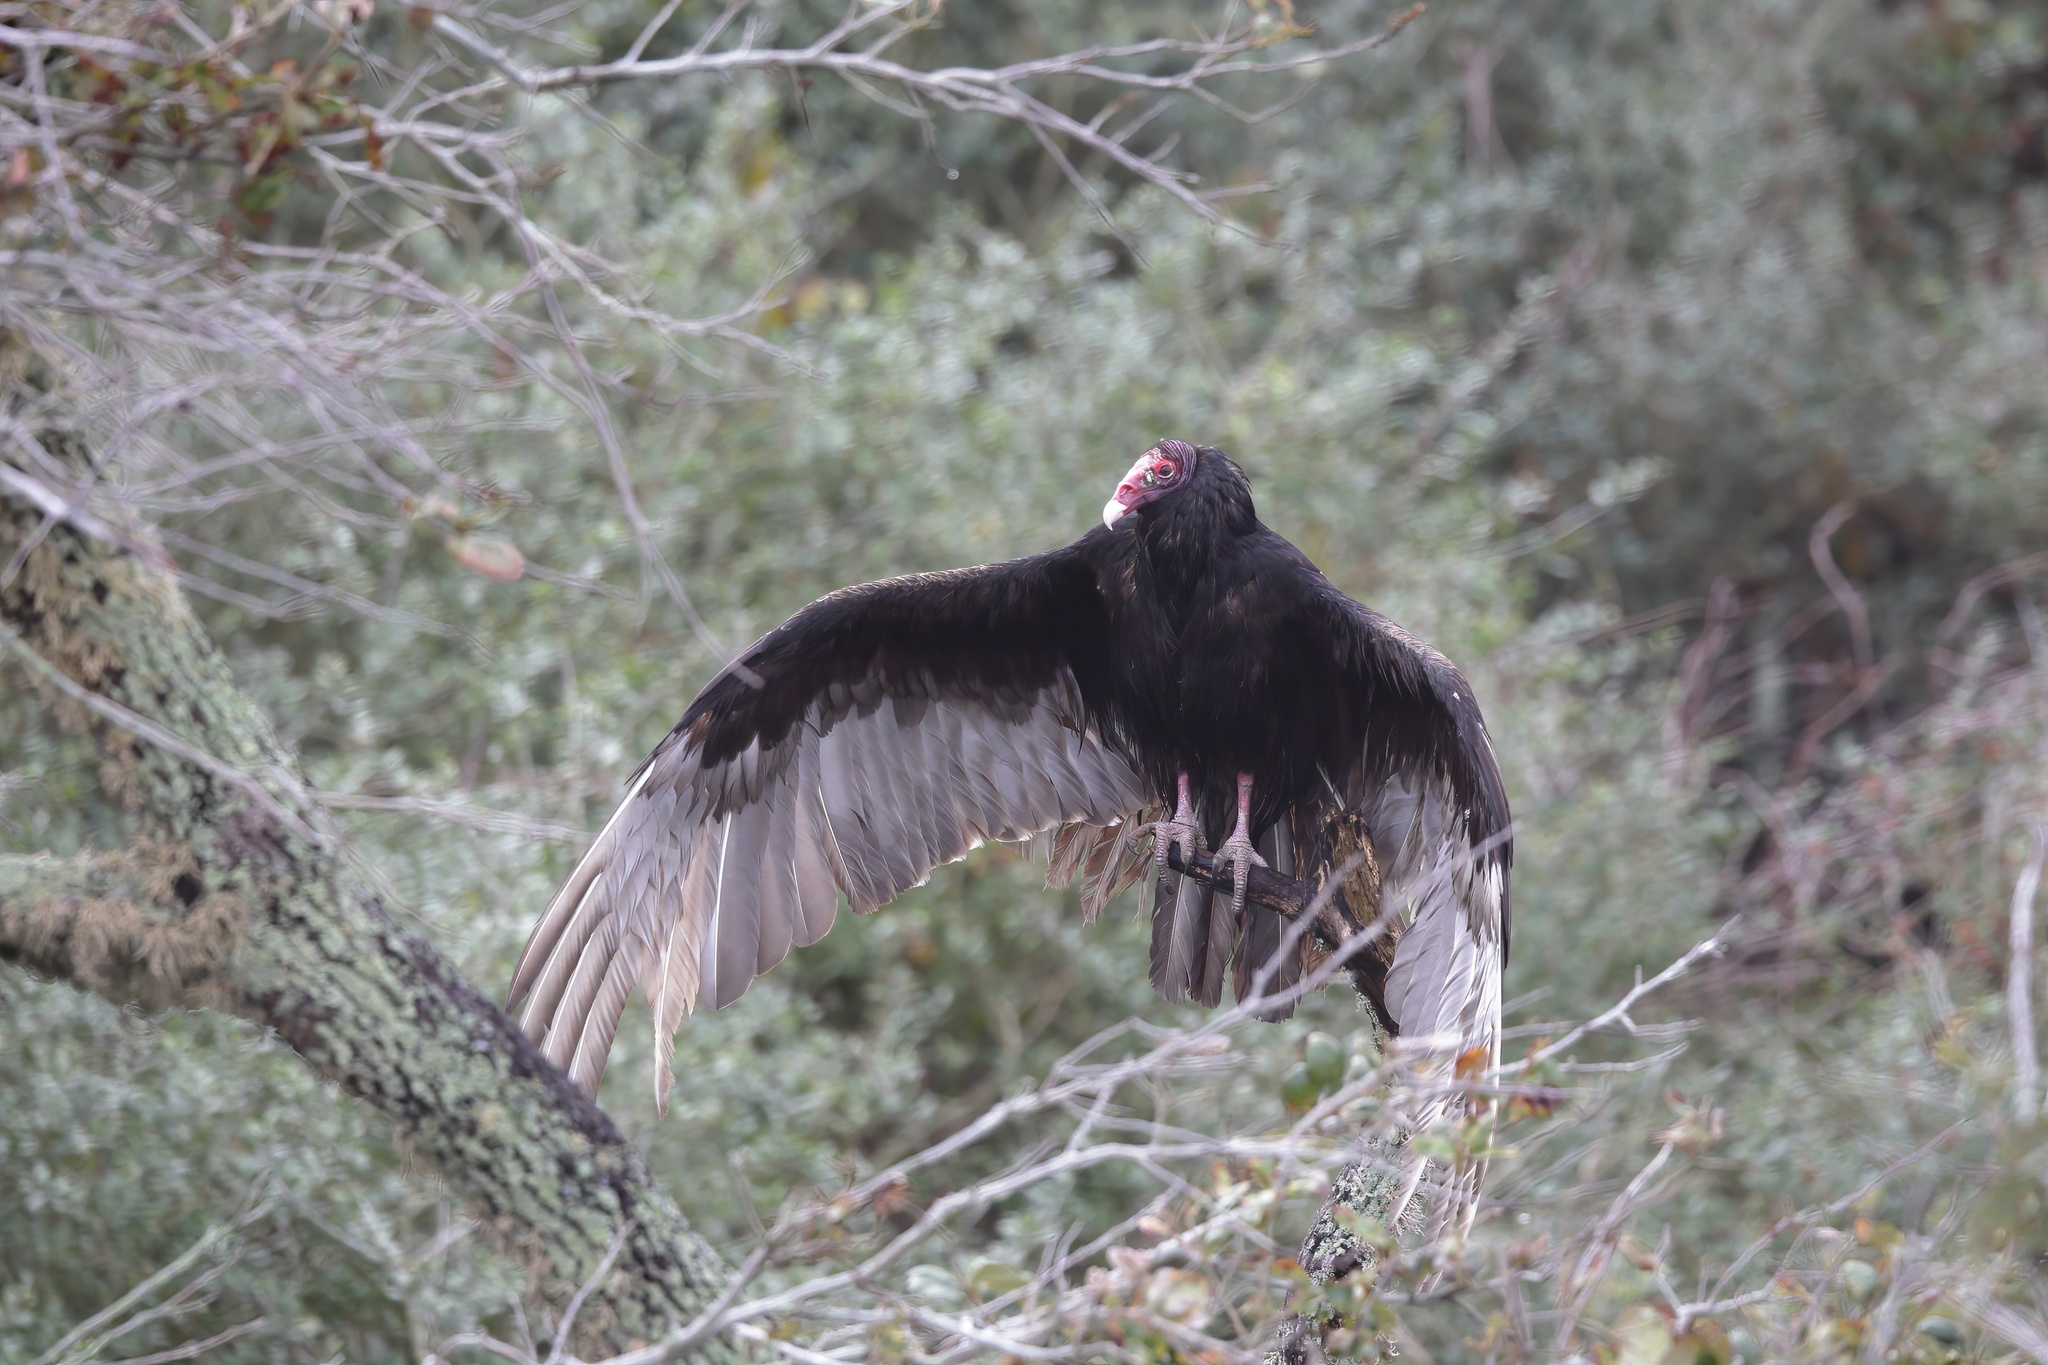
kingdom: Animalia
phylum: Chordata
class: Aves
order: Accipitriformes
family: Cathartidae
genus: Cathartes
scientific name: Cathartes aura
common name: Turkey vulture
